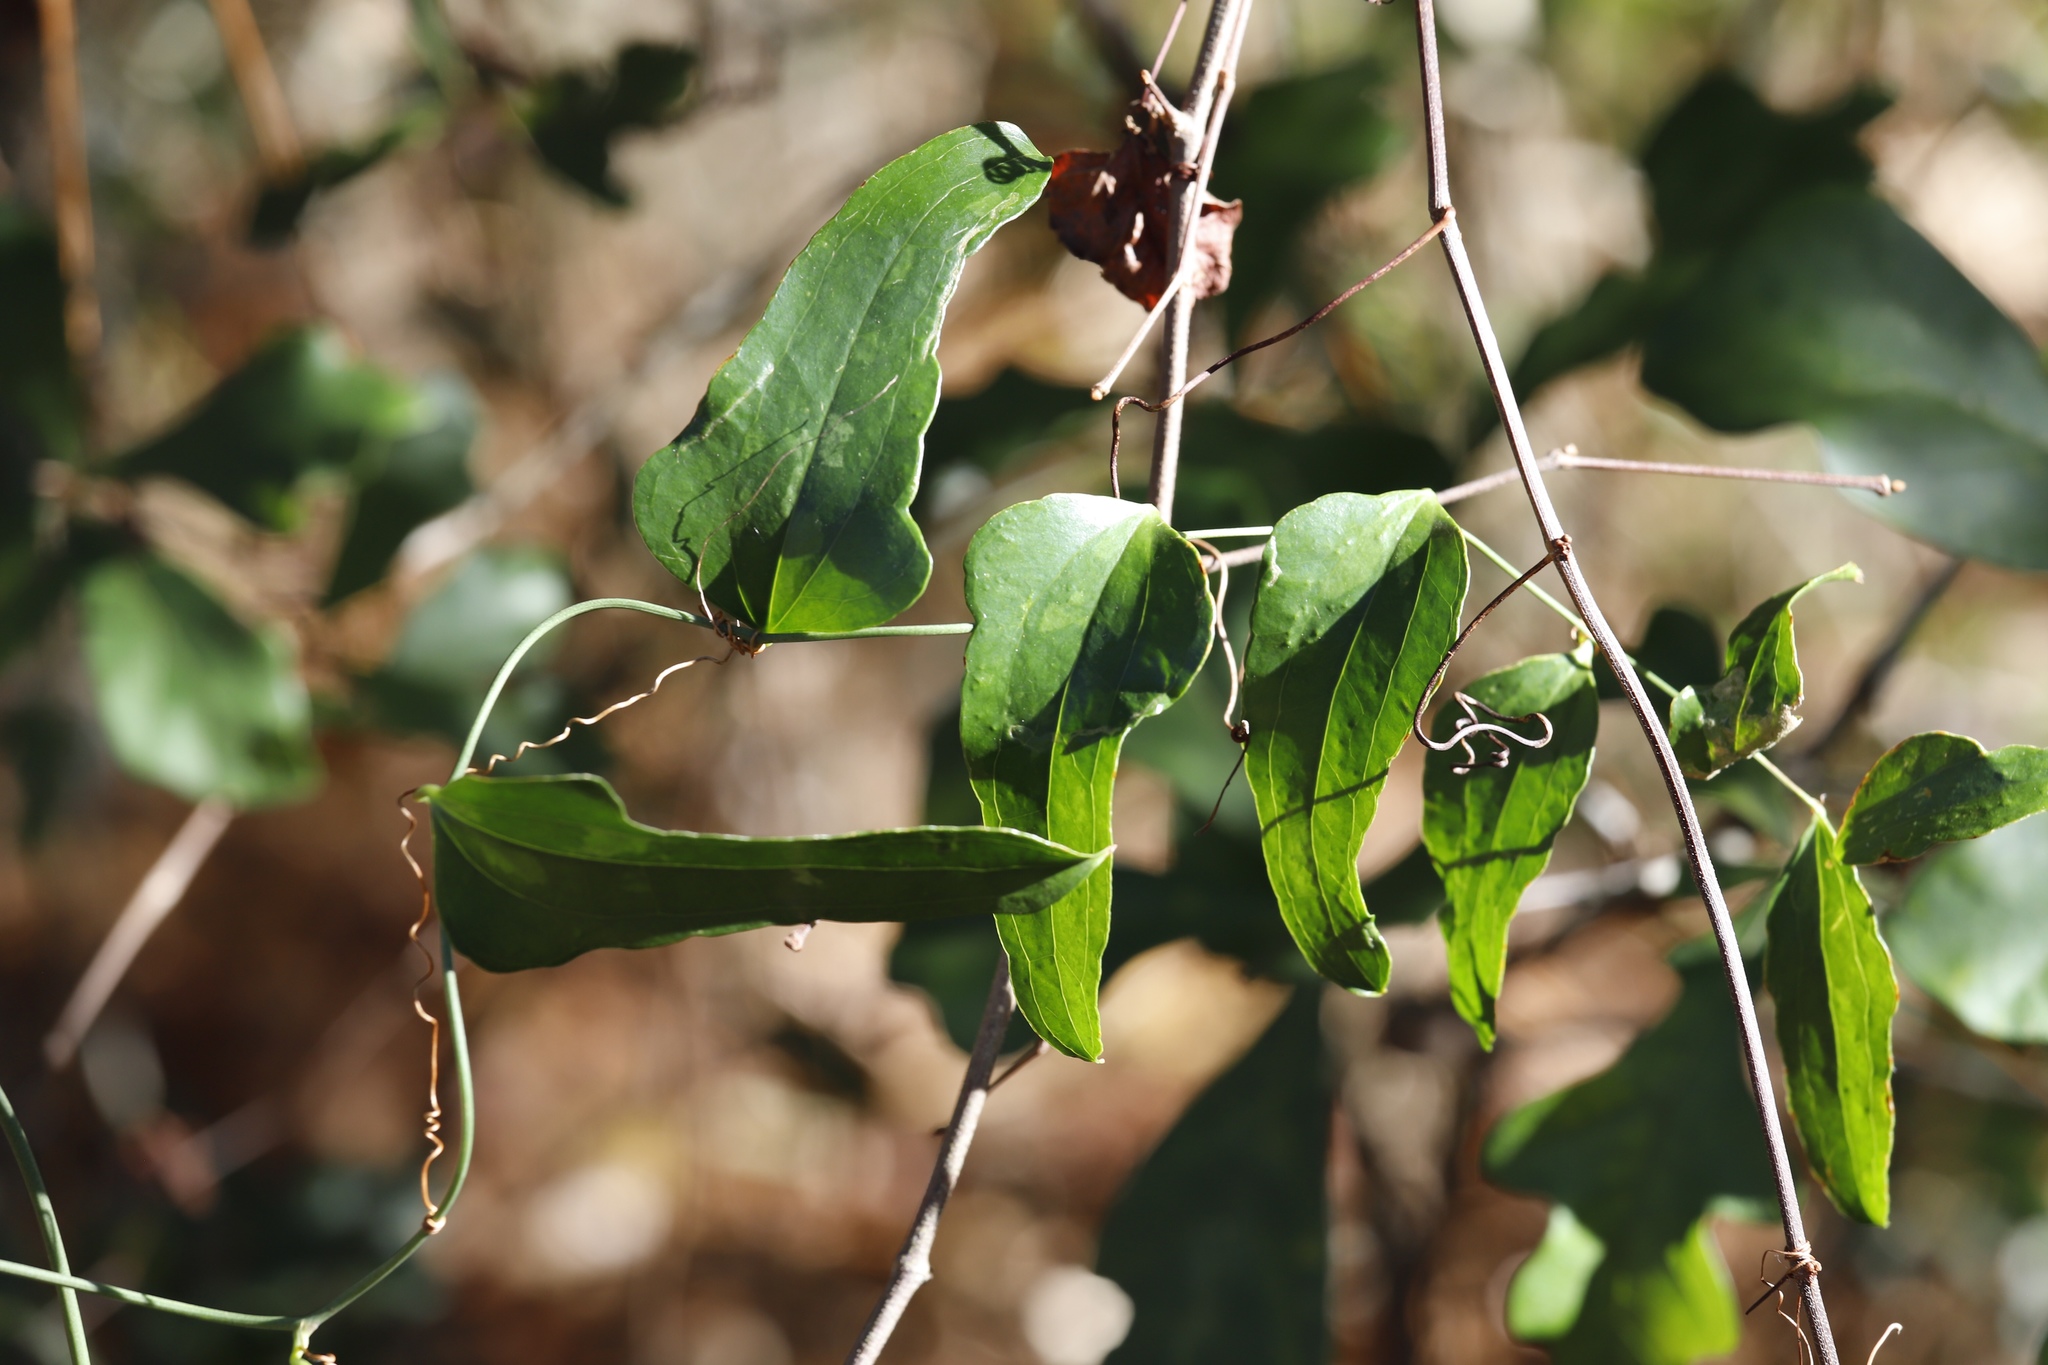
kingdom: Plantae
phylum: Tracheophyta
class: Liliopsida
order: Liliales
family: Smilacaceae
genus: Smilax
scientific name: Smilax auriculata
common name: Wild bamboo
